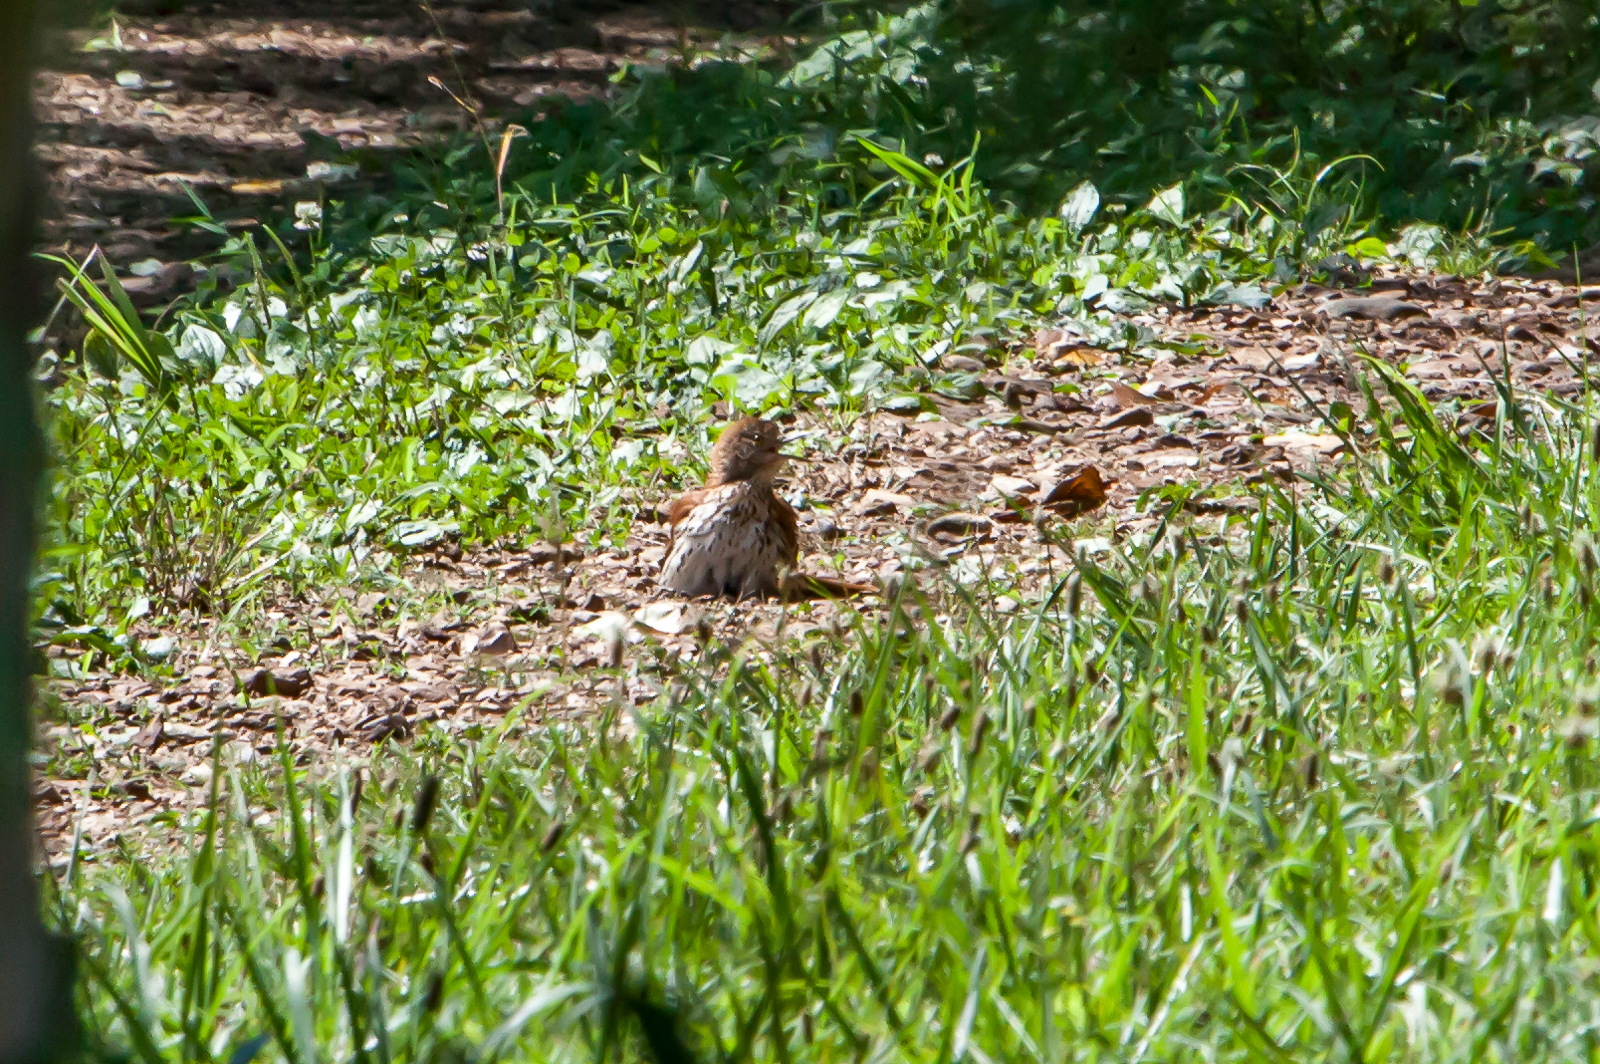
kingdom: Animalia
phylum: Chordata
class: Aves
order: Passeriformes
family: Mimidae
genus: Toxostoma
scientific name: Toxostoma rufum
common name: Brown thrasher
